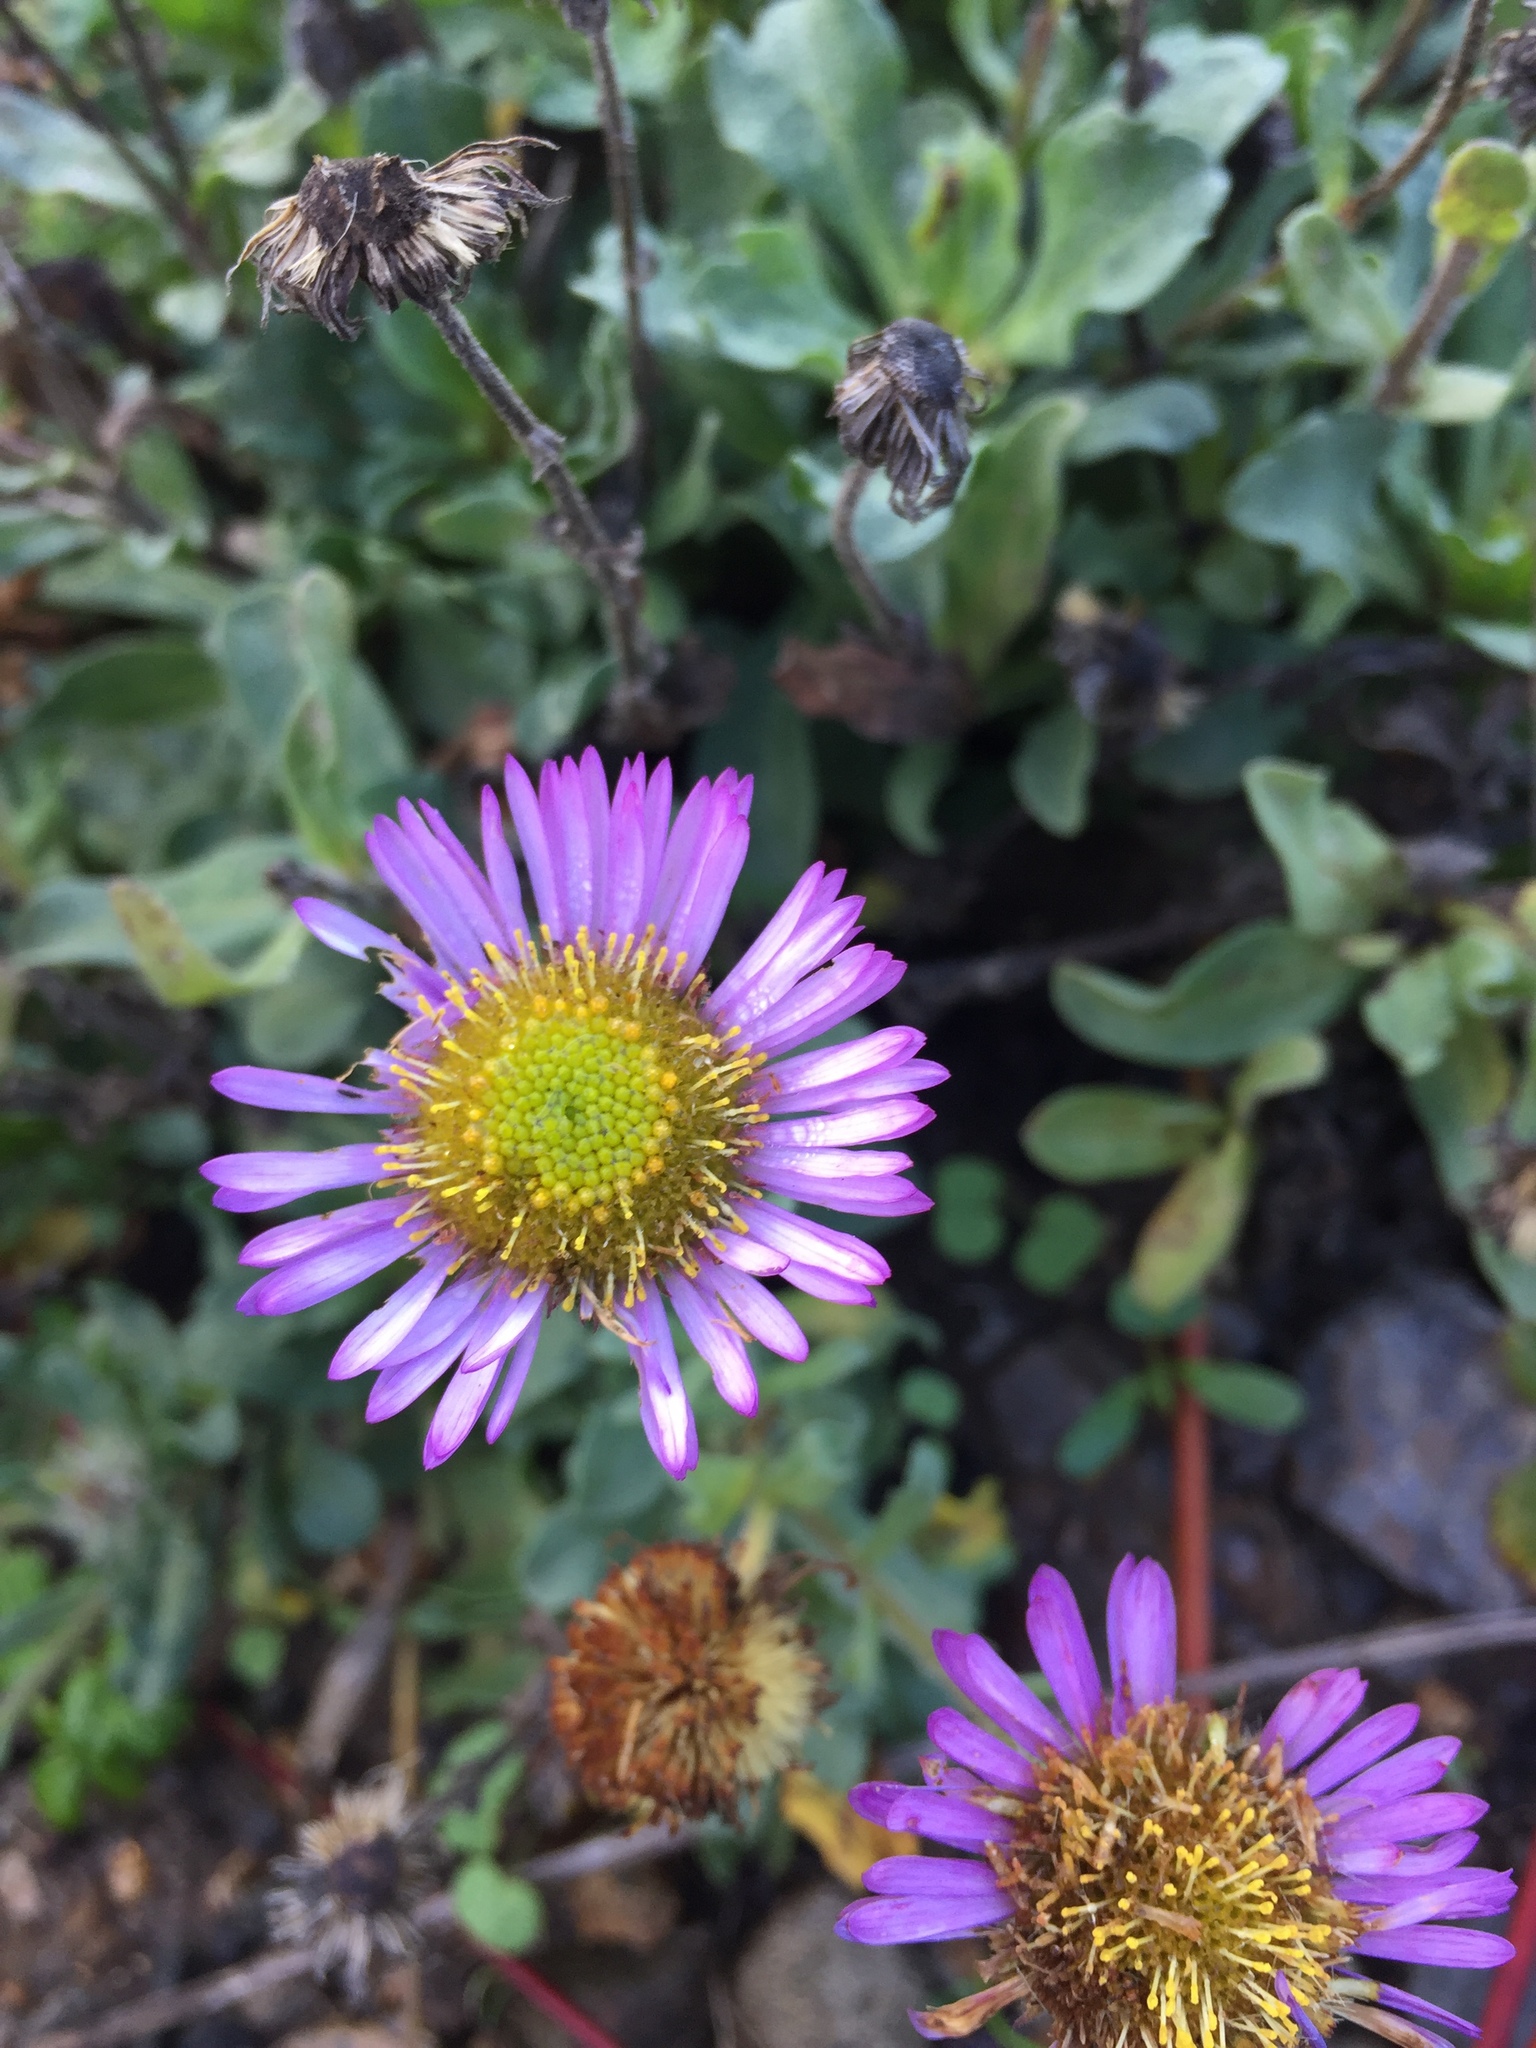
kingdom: Plantae
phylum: Tracheophyta
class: Magnoliopsida
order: Asterales
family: Asteraceae
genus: Erigeron
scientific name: Erigeron glaucus
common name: Seaside daisy
